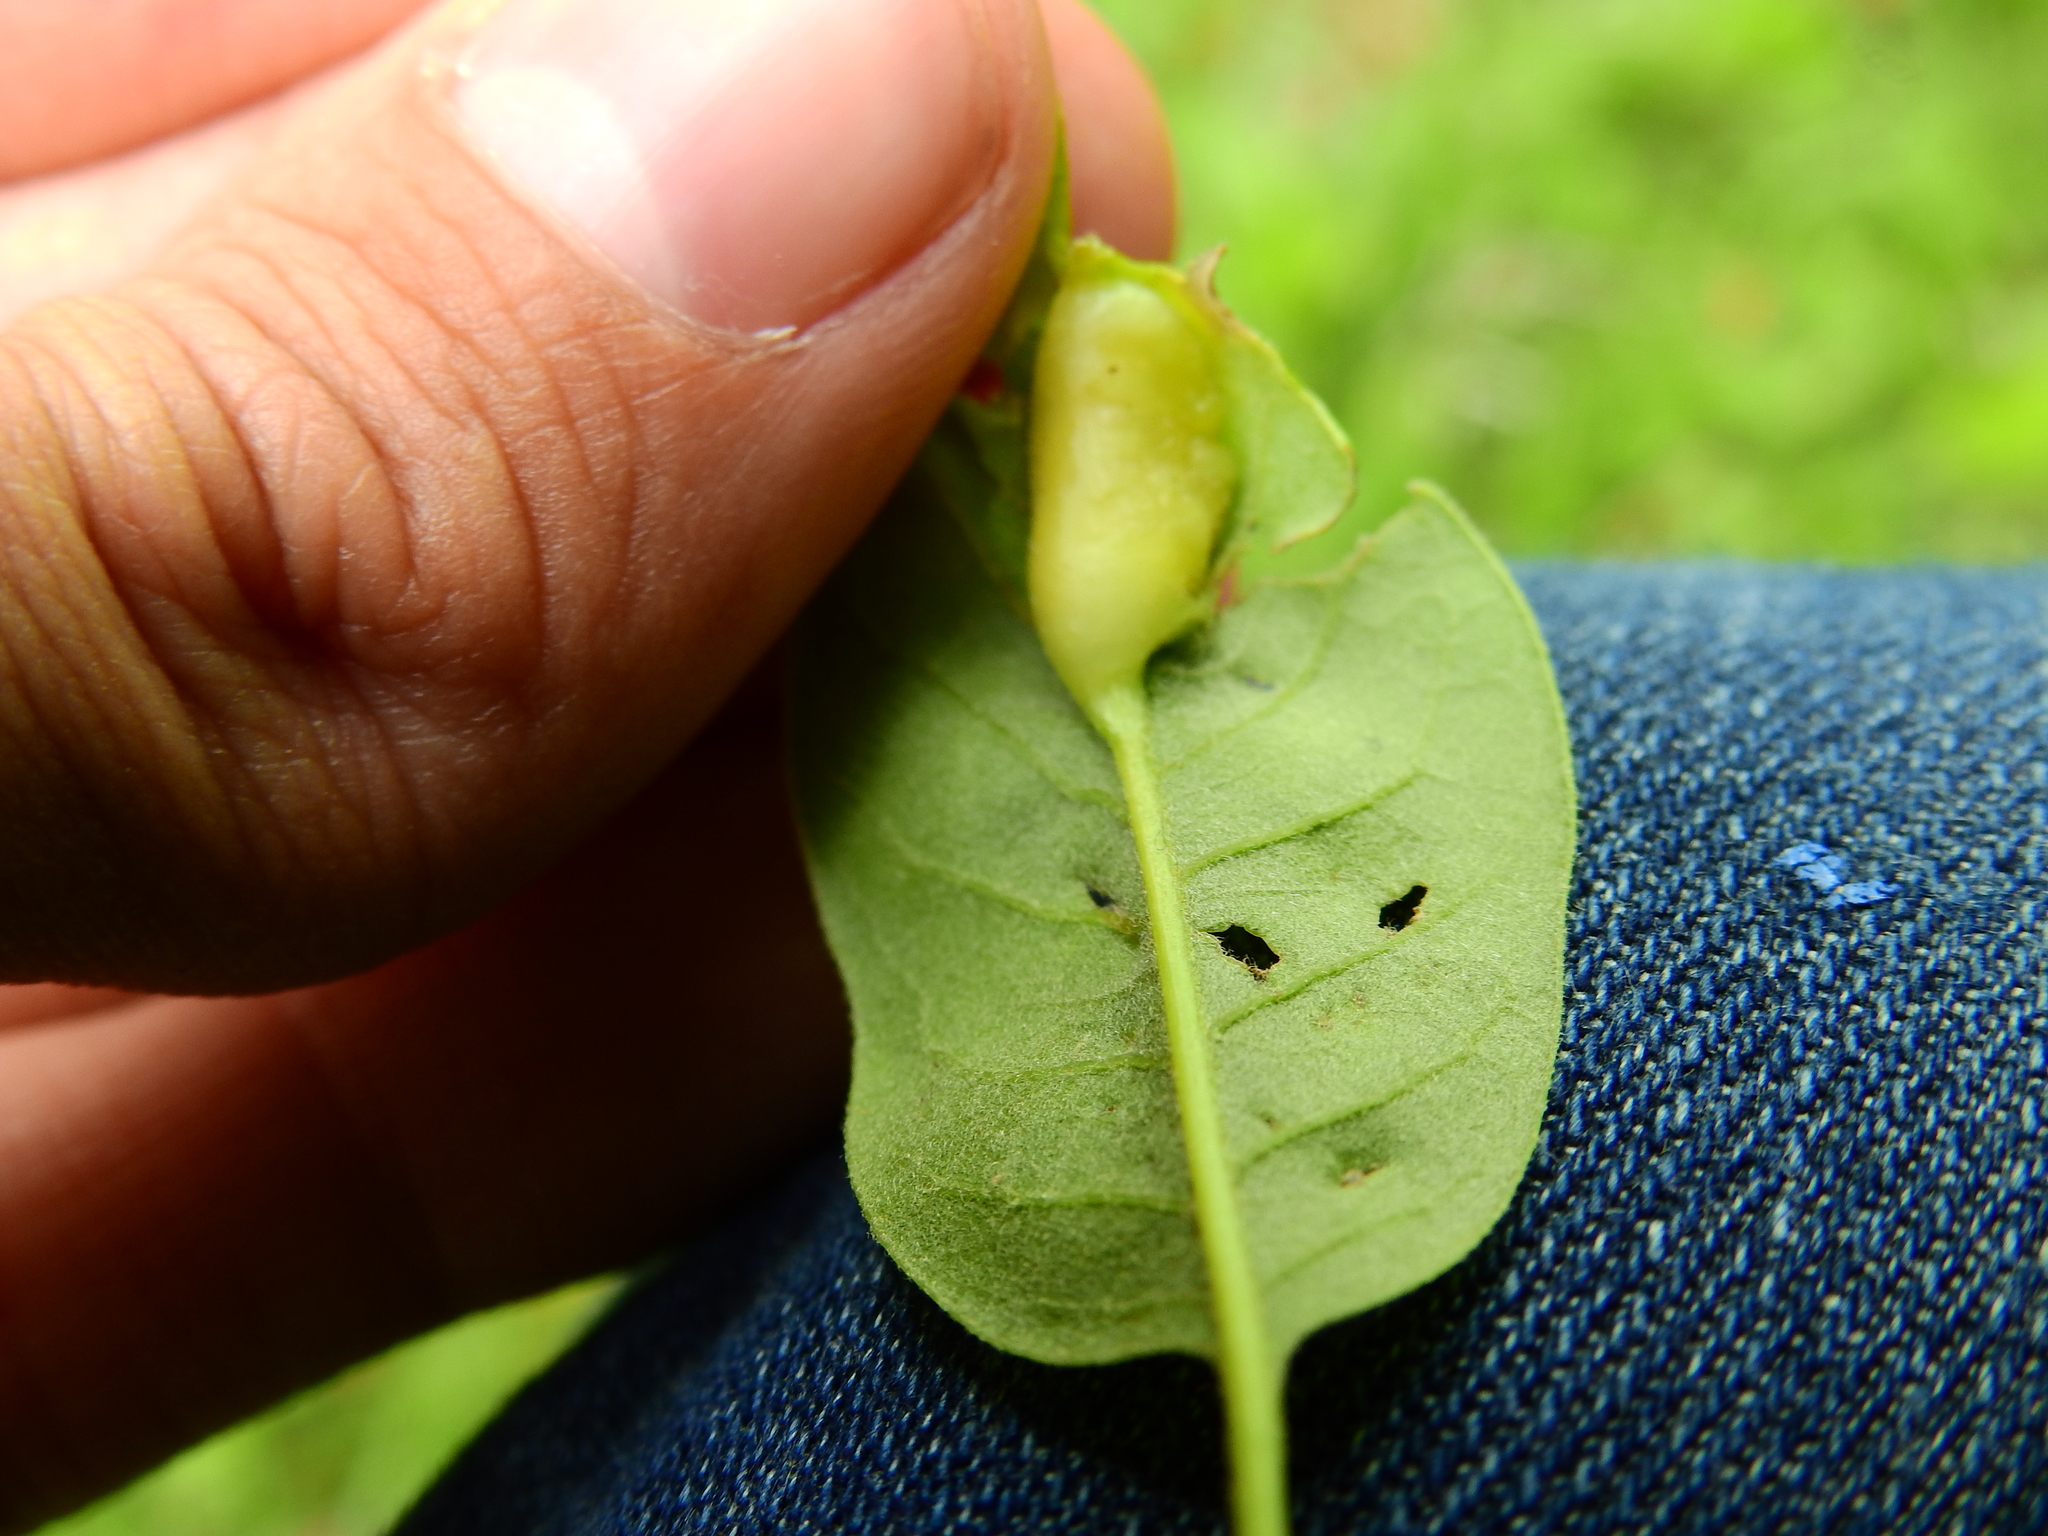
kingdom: Animalia
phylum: Arthropoda
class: Insecta
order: Hymenoptera
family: Cynipidae
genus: Callirhytis
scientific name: Callirhytis
